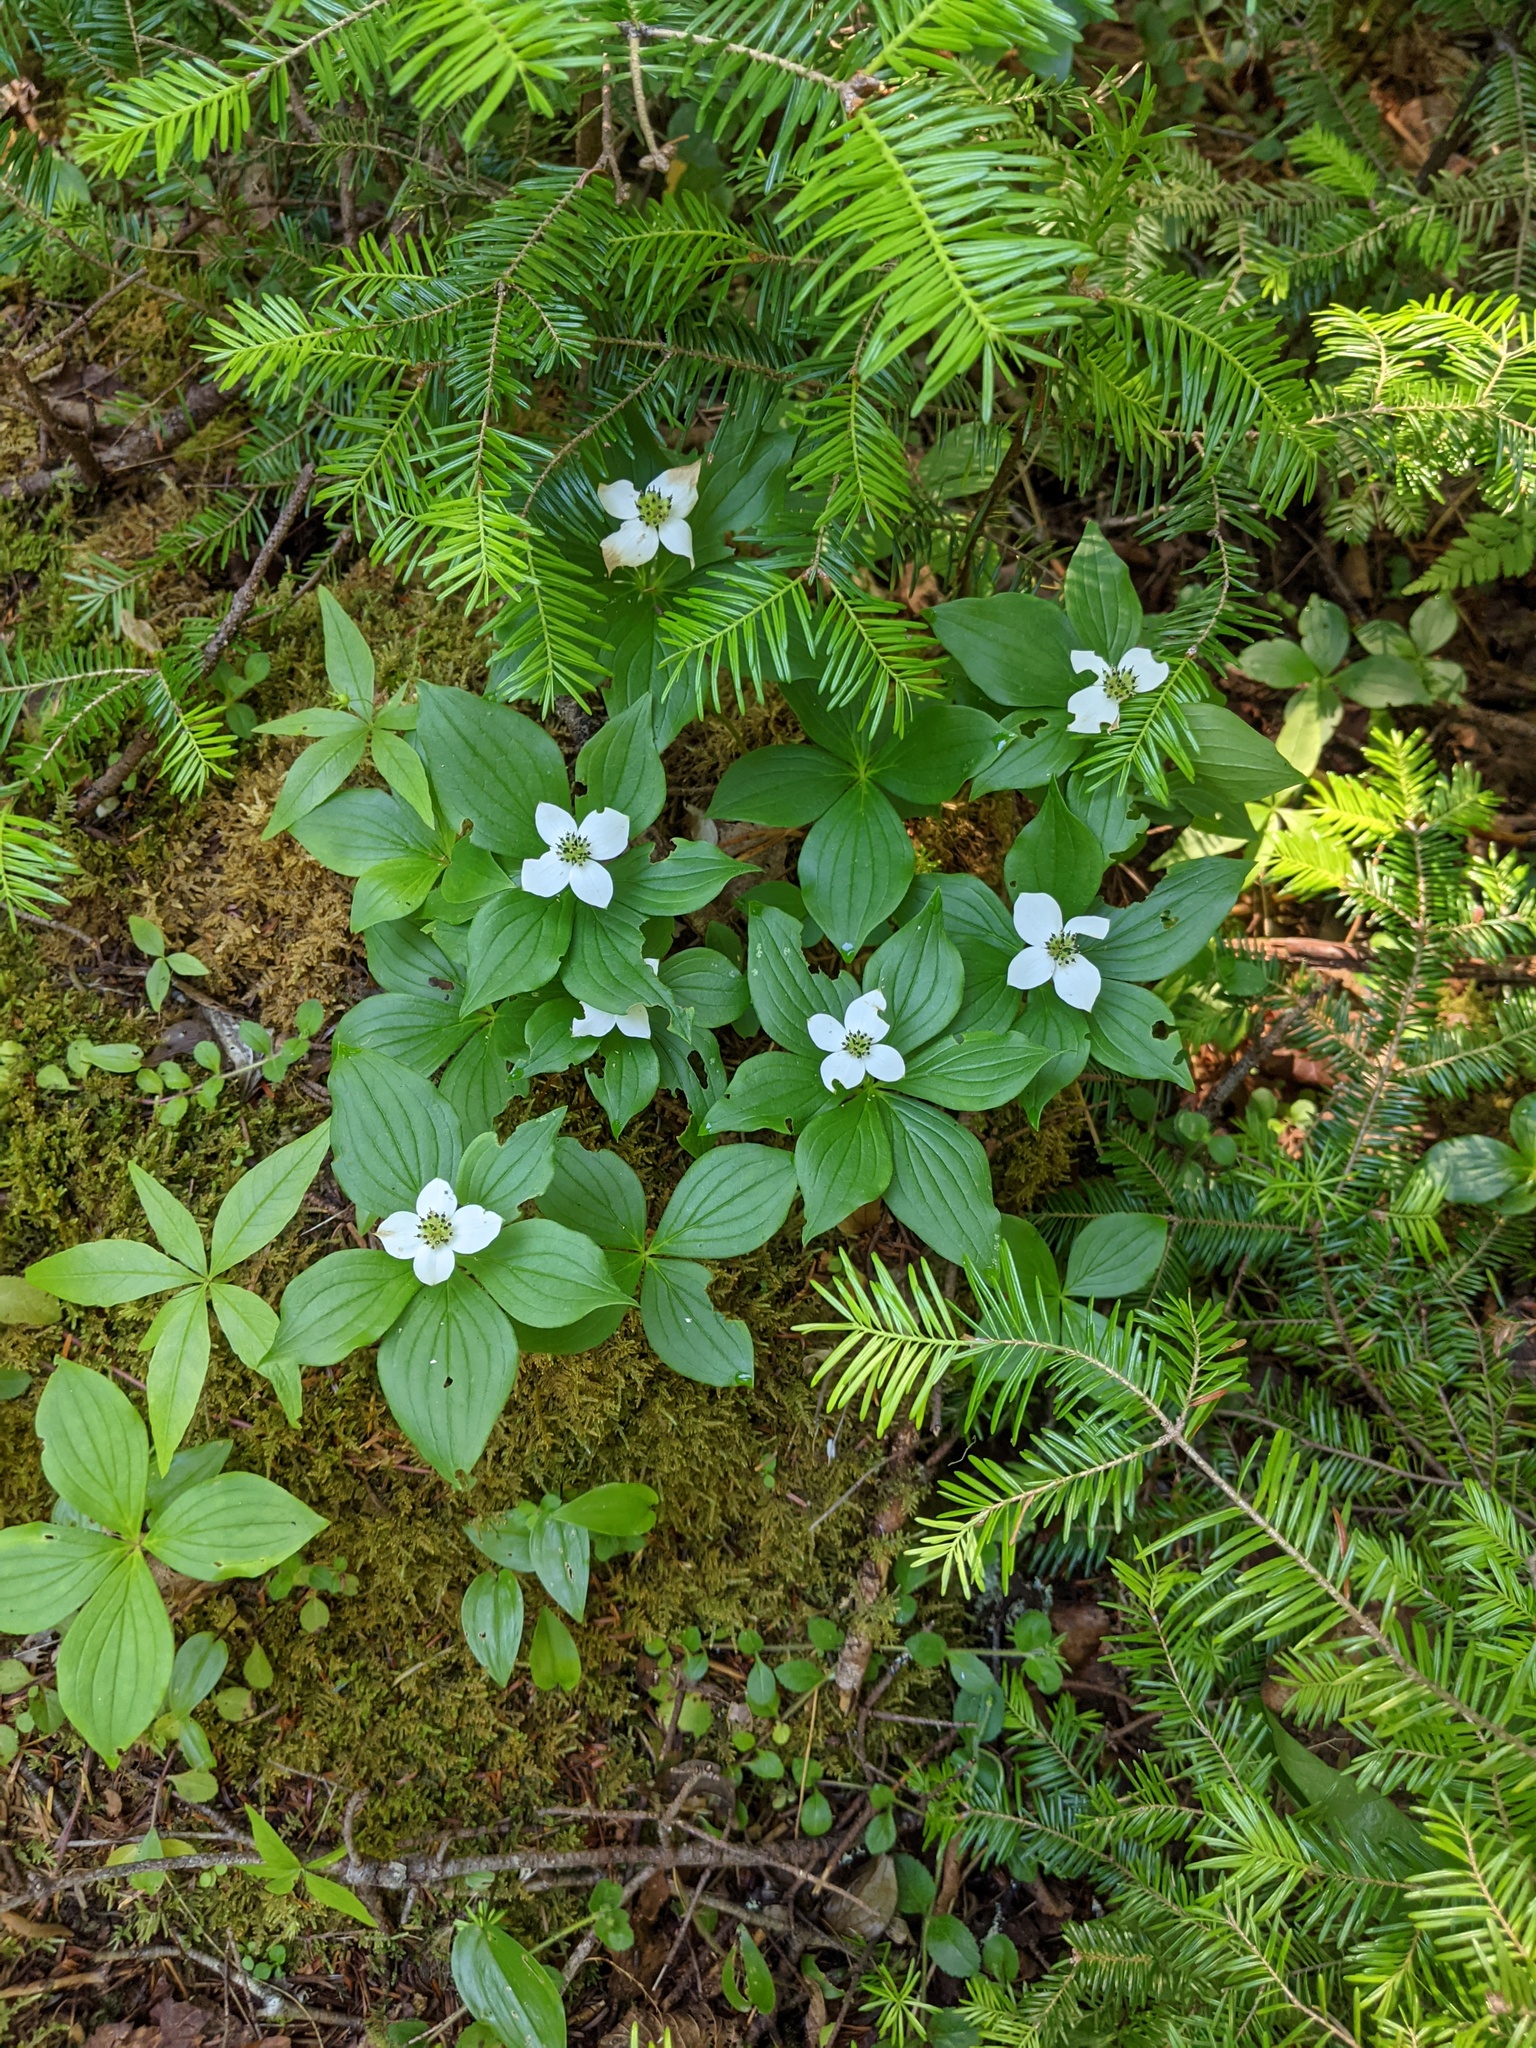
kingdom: Plantae
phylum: Tracheophyta
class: Magnoliopsida
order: Cornales
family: Cornaceae
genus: Cornus
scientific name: Cornus canadensis
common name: Creeping dogwood
